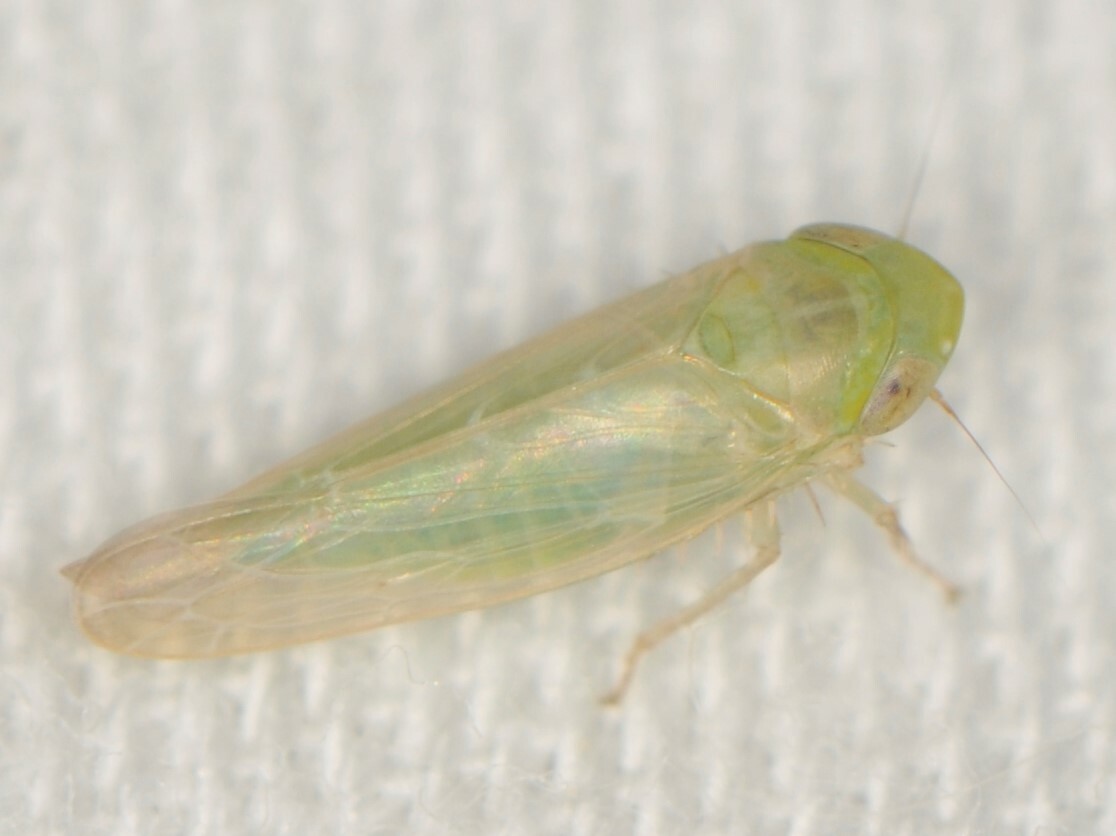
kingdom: Animalia
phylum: Arthropoda
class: Insecta
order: Hemiptera
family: Cicadellidae
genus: Chlorotettix
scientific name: Chlorotettix
